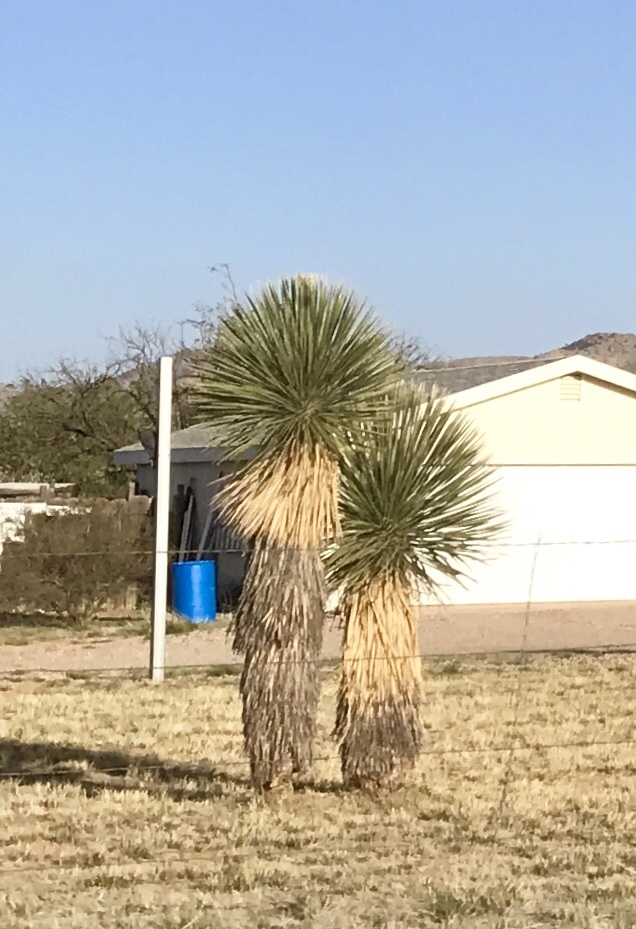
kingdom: Plantae
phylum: Tracheophyta
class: Liliopsida
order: Asparagales
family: Asparagaceae
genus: Yucca
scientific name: Yucca elata
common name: Palmella
